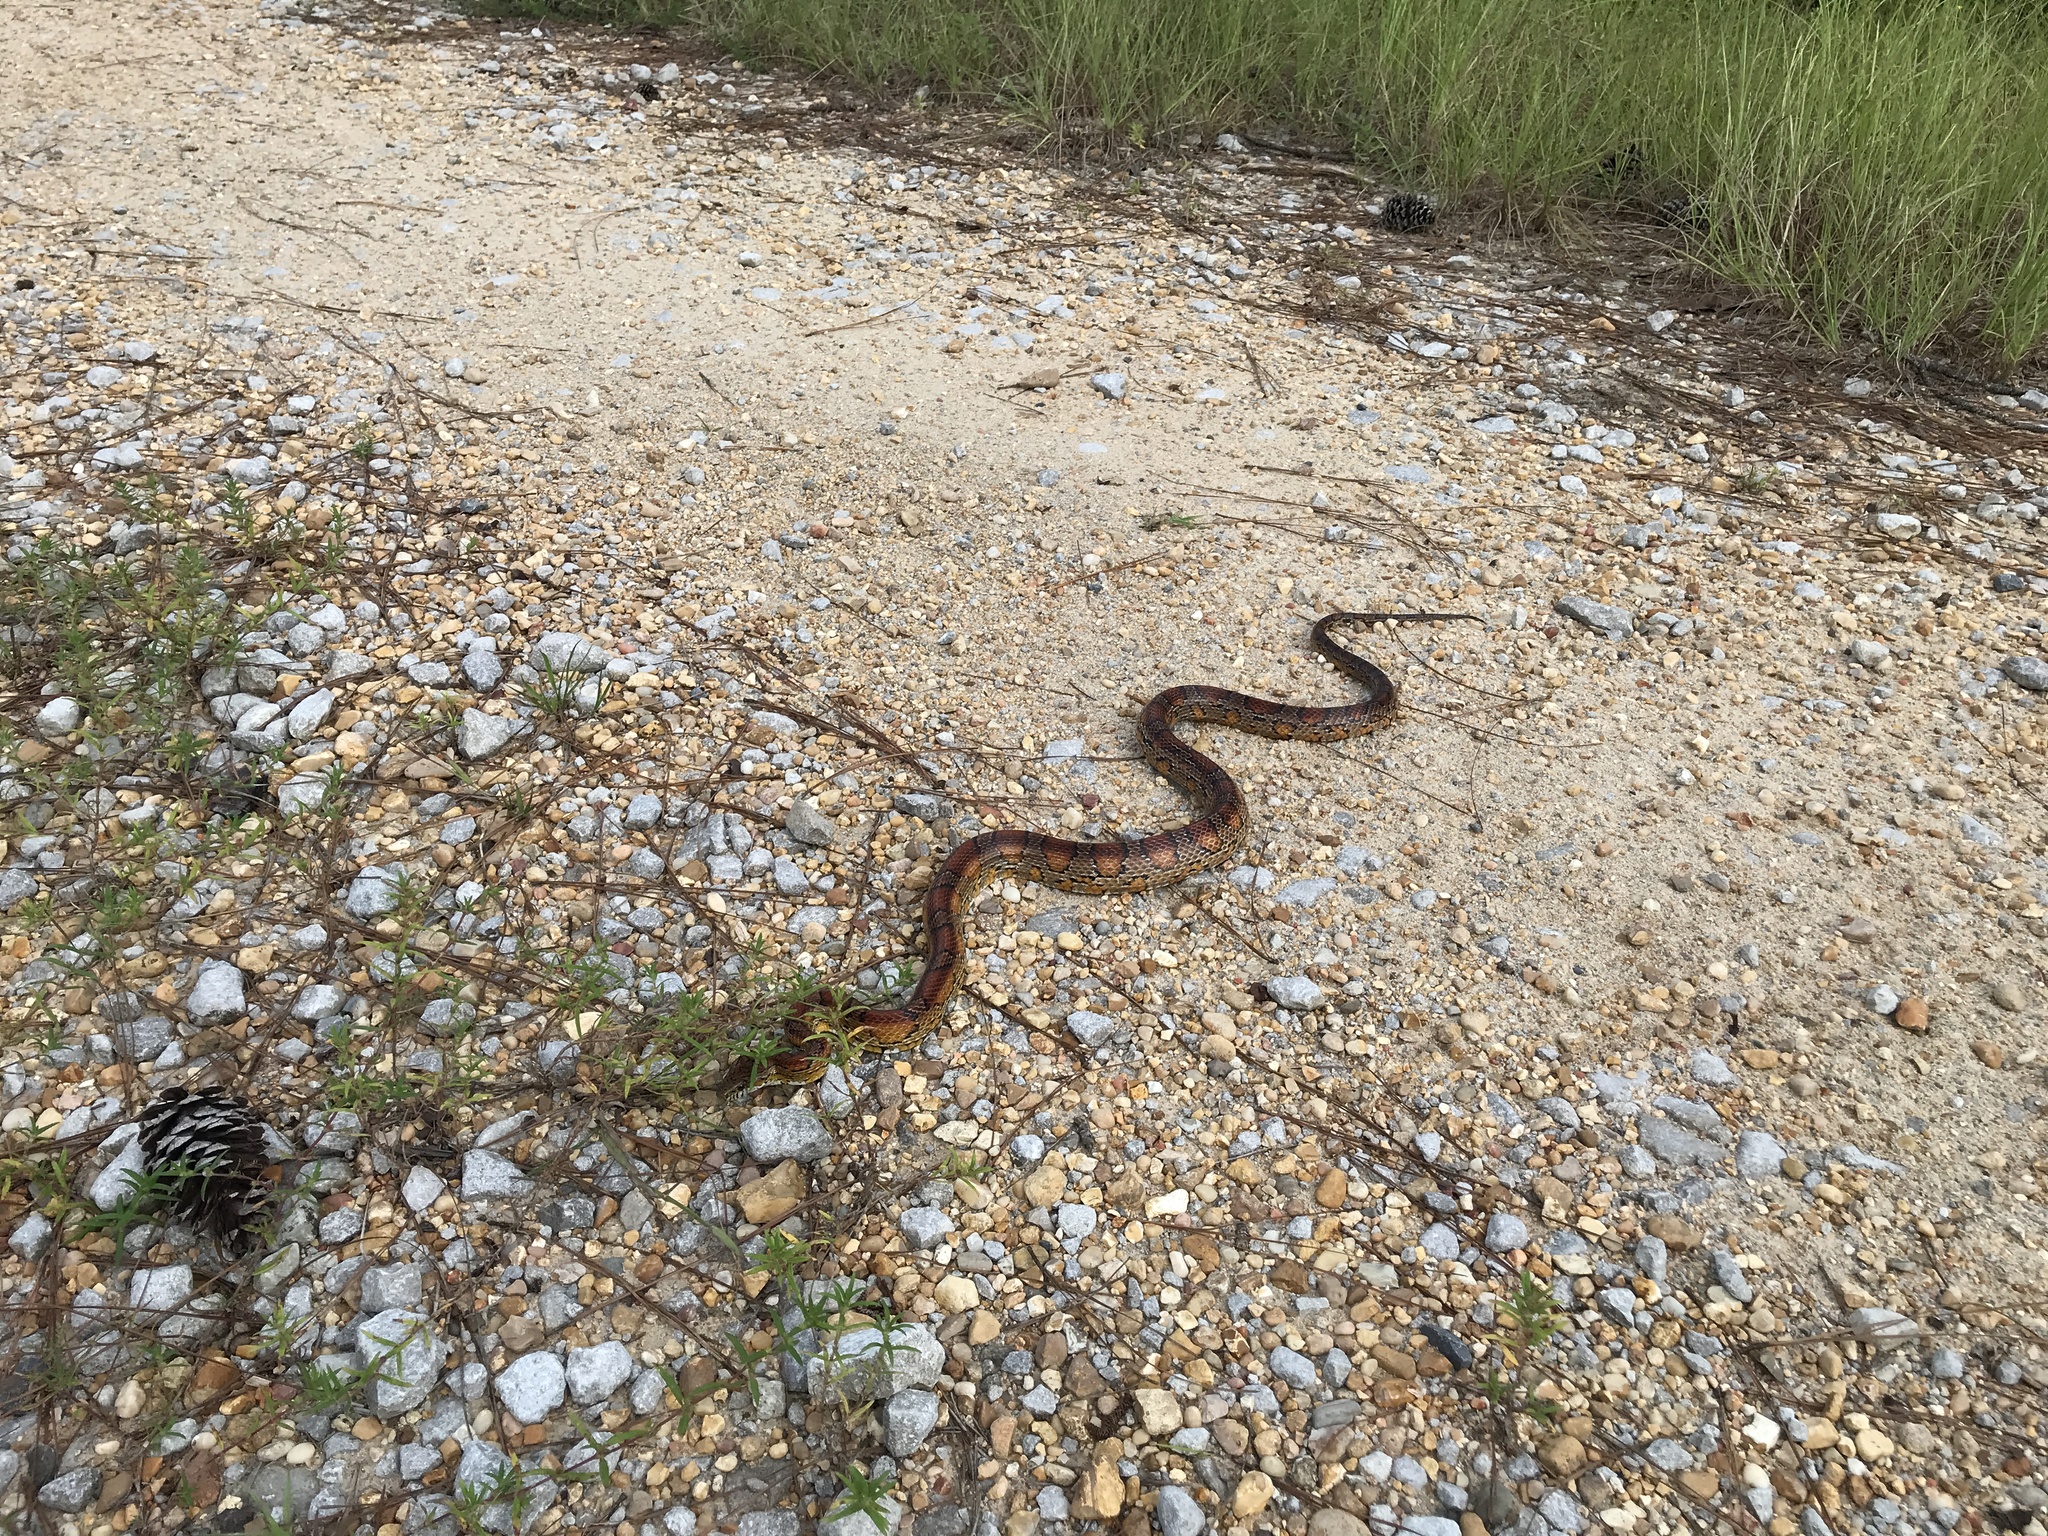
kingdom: Animalia
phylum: Chordata
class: Squamata
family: Colubridae
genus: Pantherophis
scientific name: Pantherophis guttatus
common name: Red cornsnake
